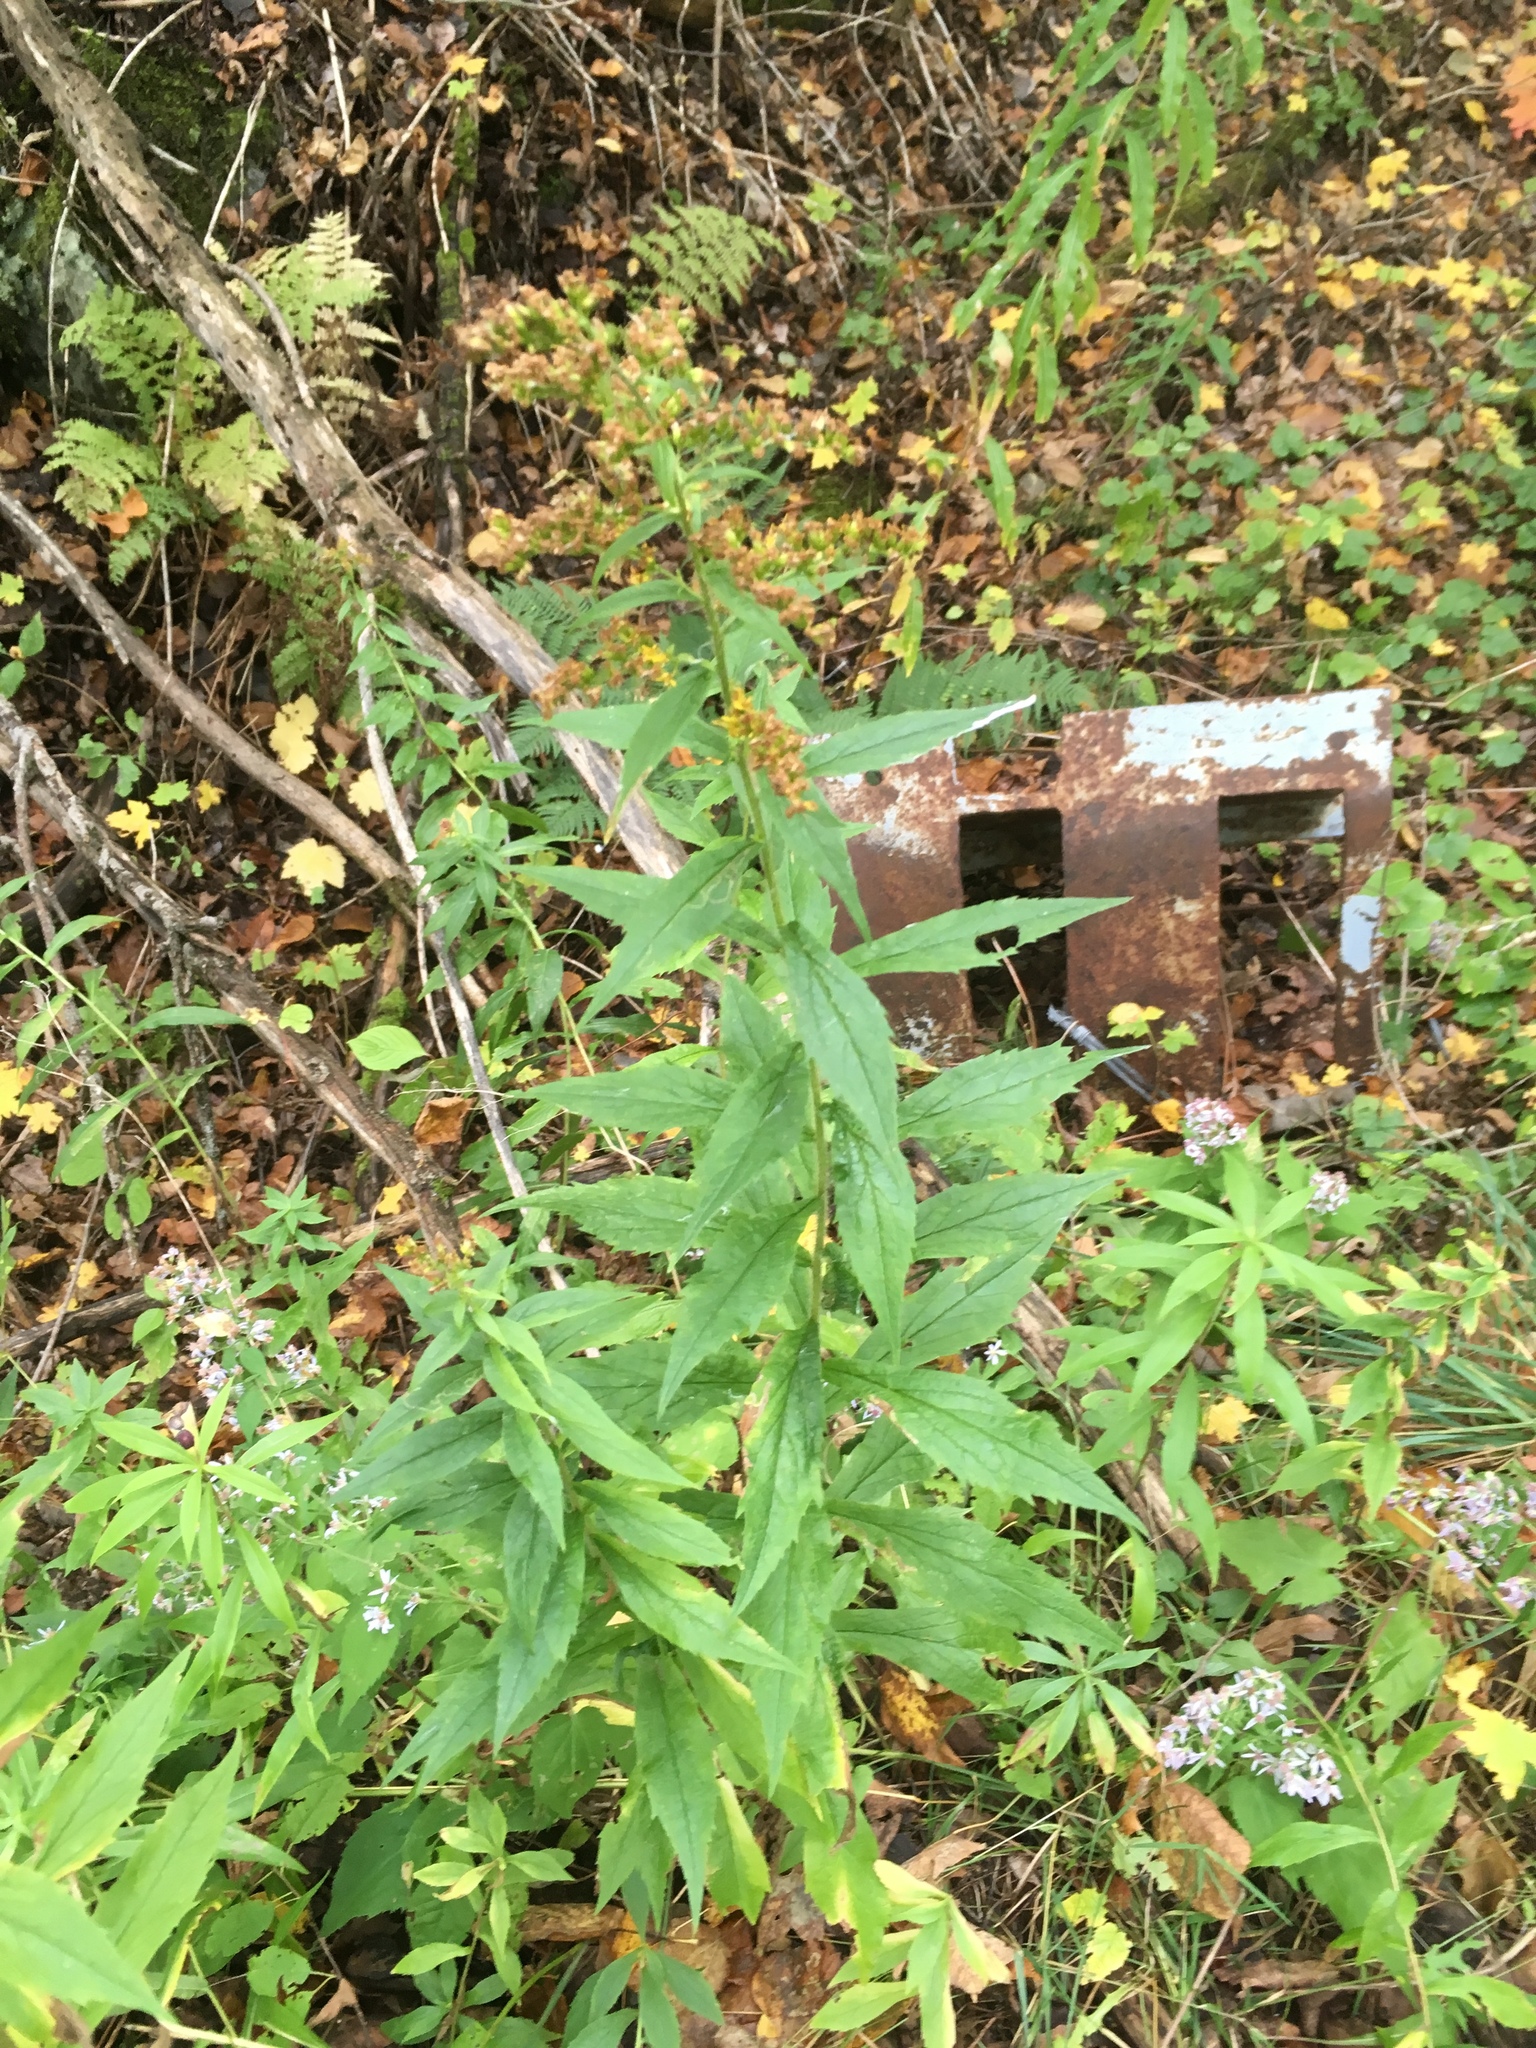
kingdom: Plantae
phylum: Tracheophyta
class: Magnoliopsida
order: Asterales
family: Asteraceae
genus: Solidago
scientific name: Solidago rugosa
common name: Rough-stemmed goldenrod
